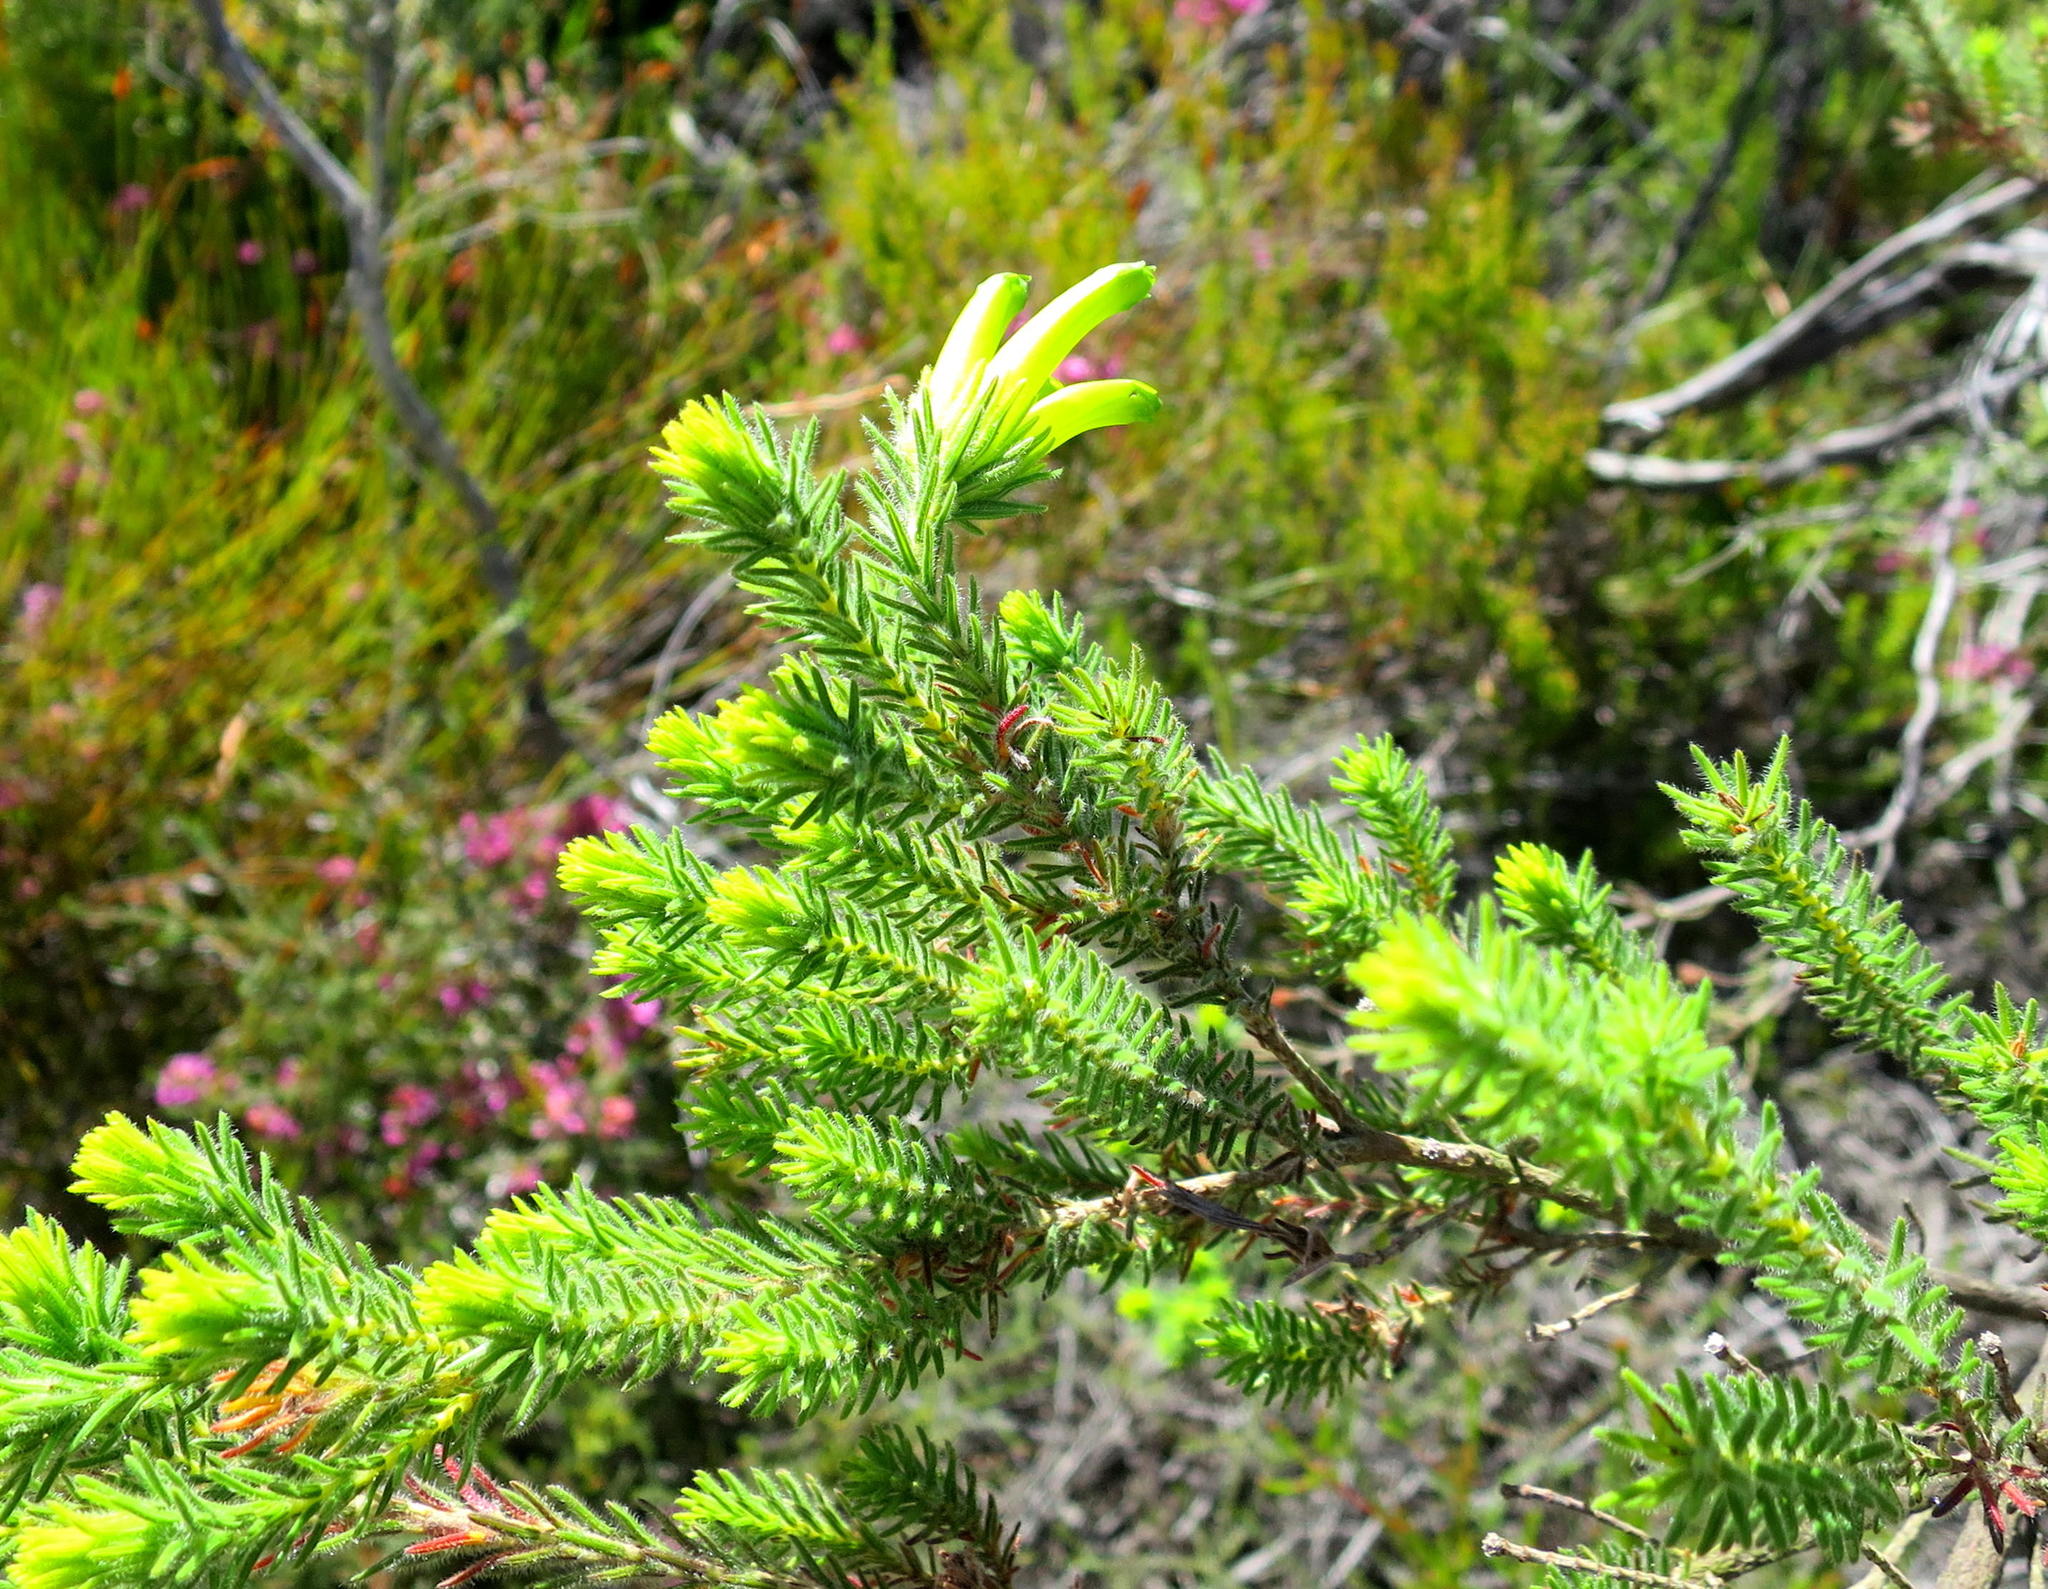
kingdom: Plantae
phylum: Tracheophyta
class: Magnoliopsida
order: Ericales
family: Ericaceae
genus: Erica
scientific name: Erica unicolor
